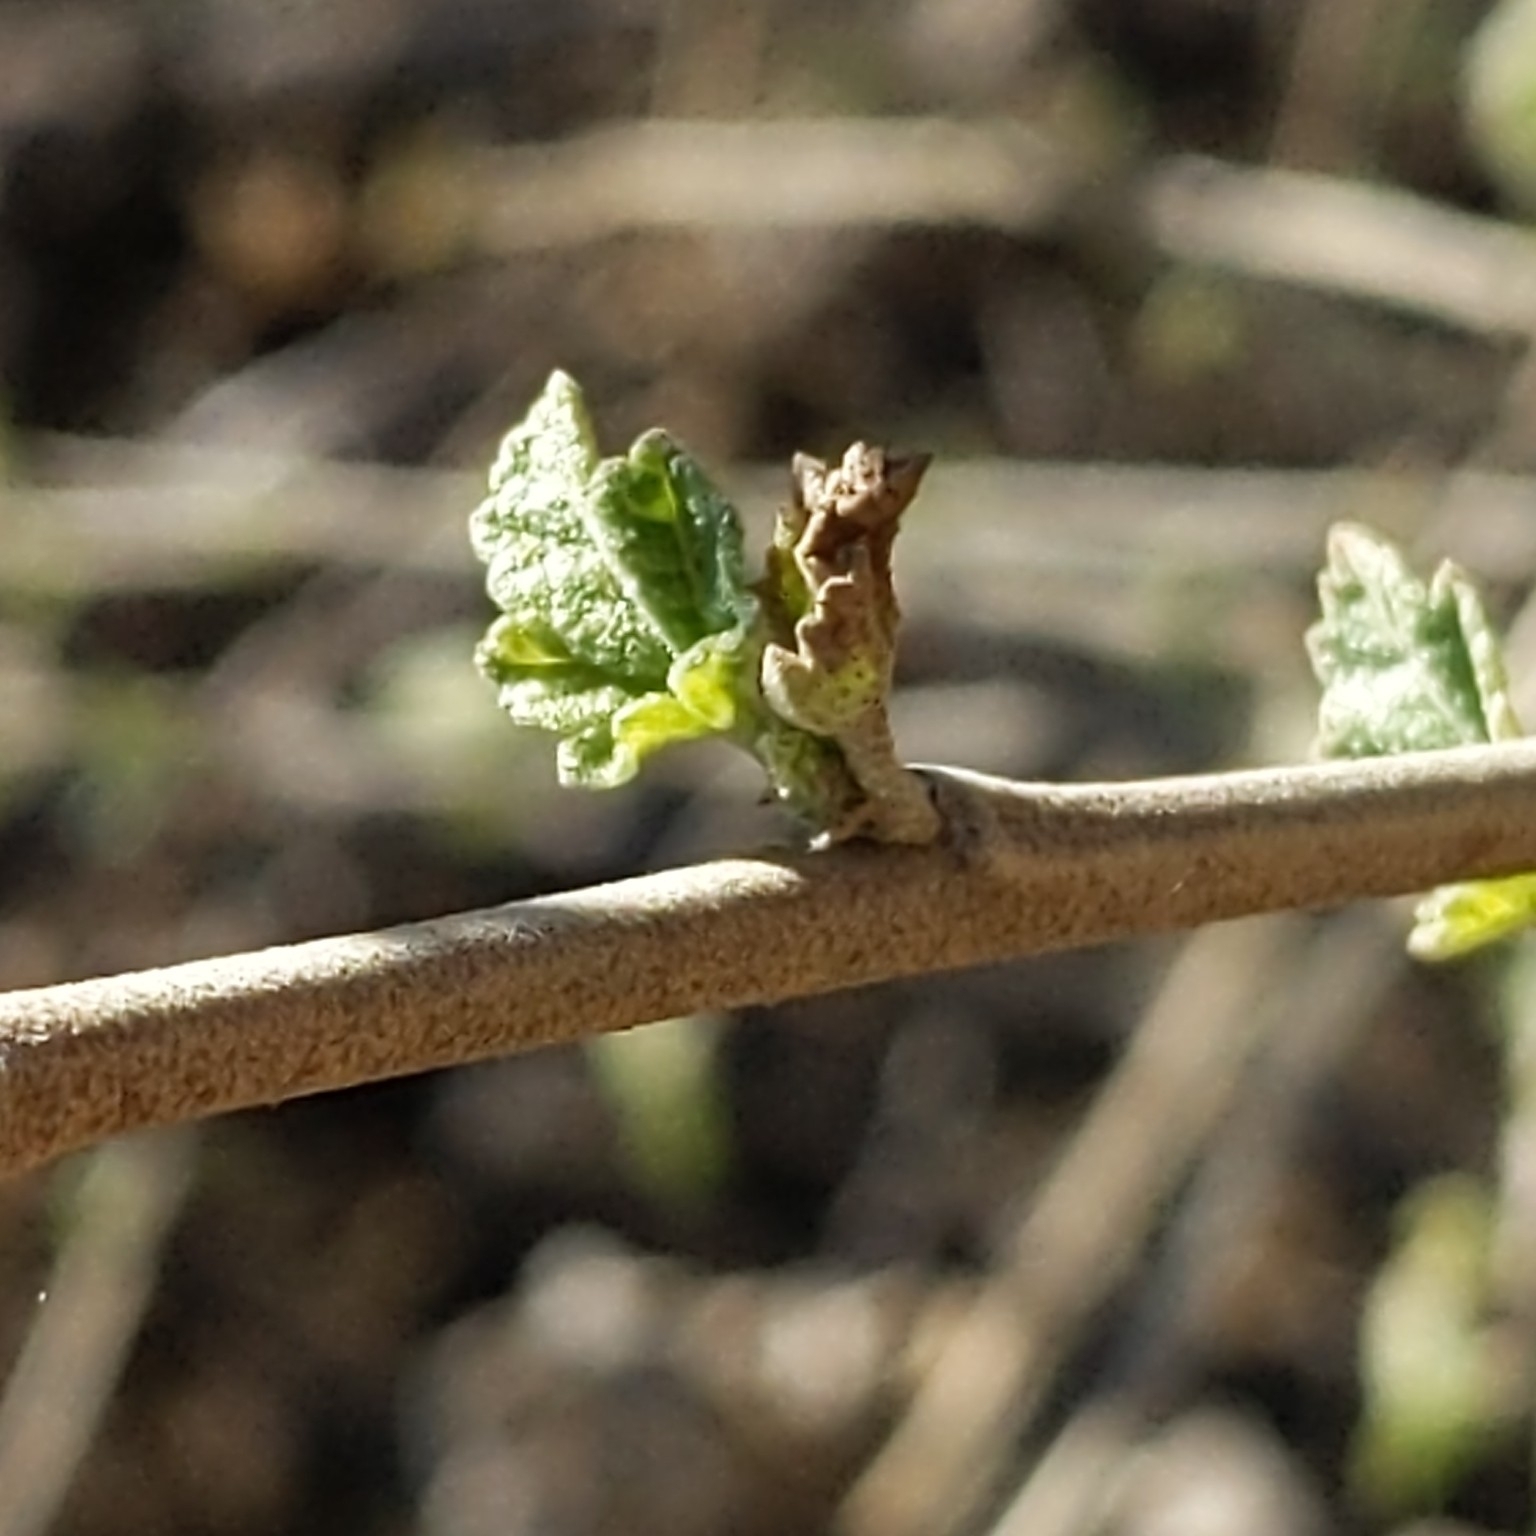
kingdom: Plantae
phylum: Tracheophyta
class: Magnoliopsida
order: Malvales
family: Malvaceae
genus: Malacothamnus
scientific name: Malacothamnus fasciculatus
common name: Sant cruz island bush-mallow
